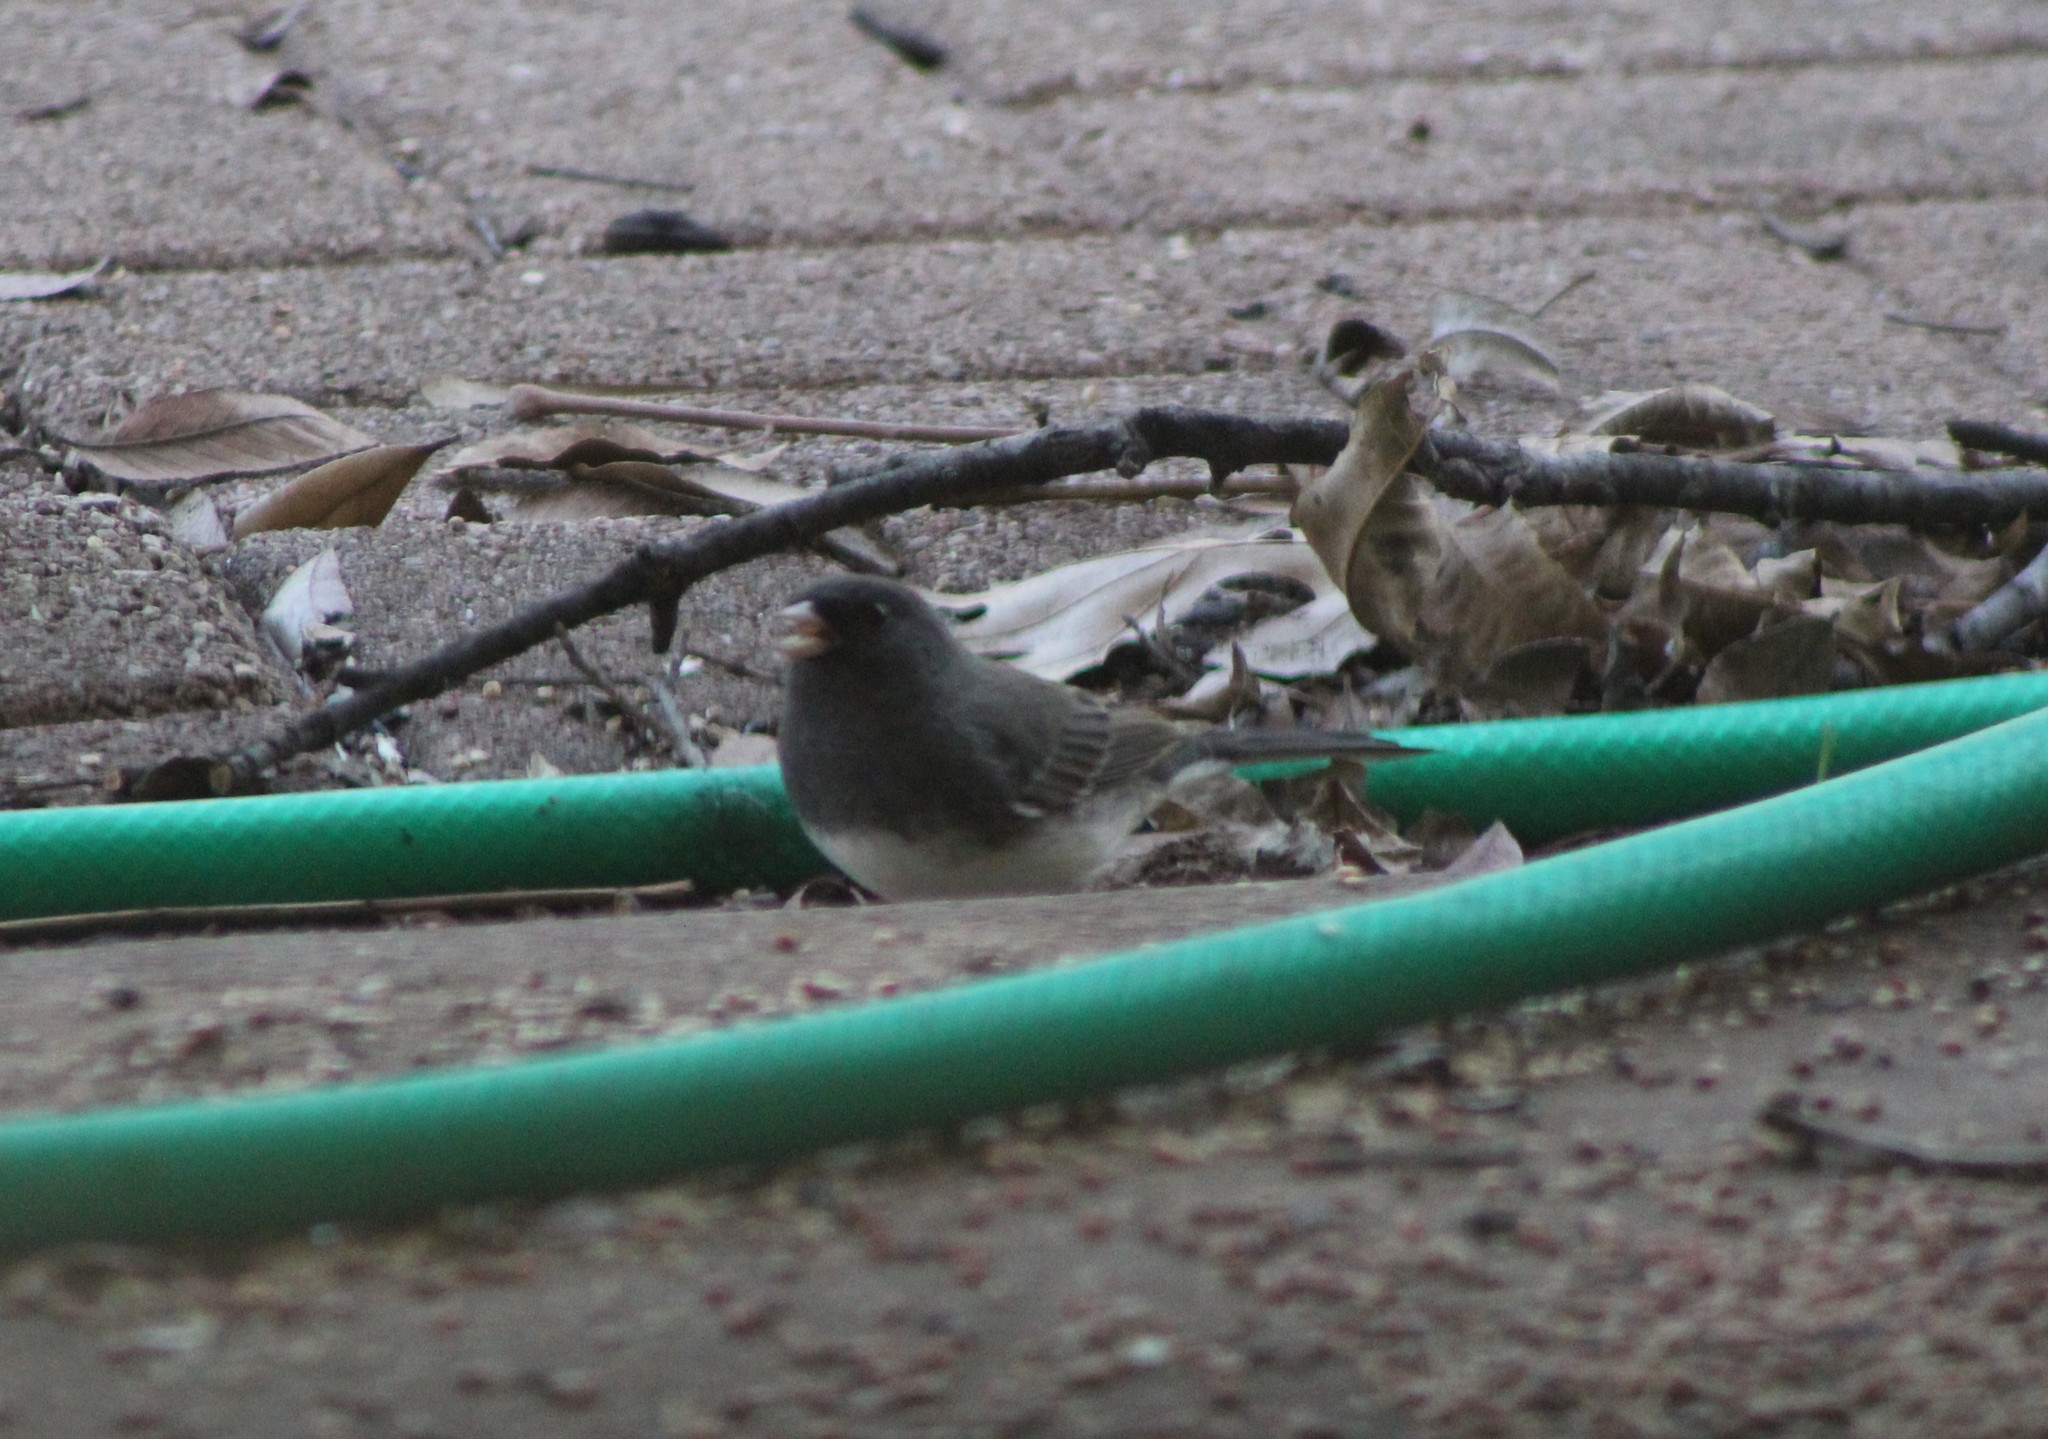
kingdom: Animalia
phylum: Chordata
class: Aves
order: Passeriformes
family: Passerellidae
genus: Junco
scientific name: Junco hyemalis
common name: Dark-eyed junco
